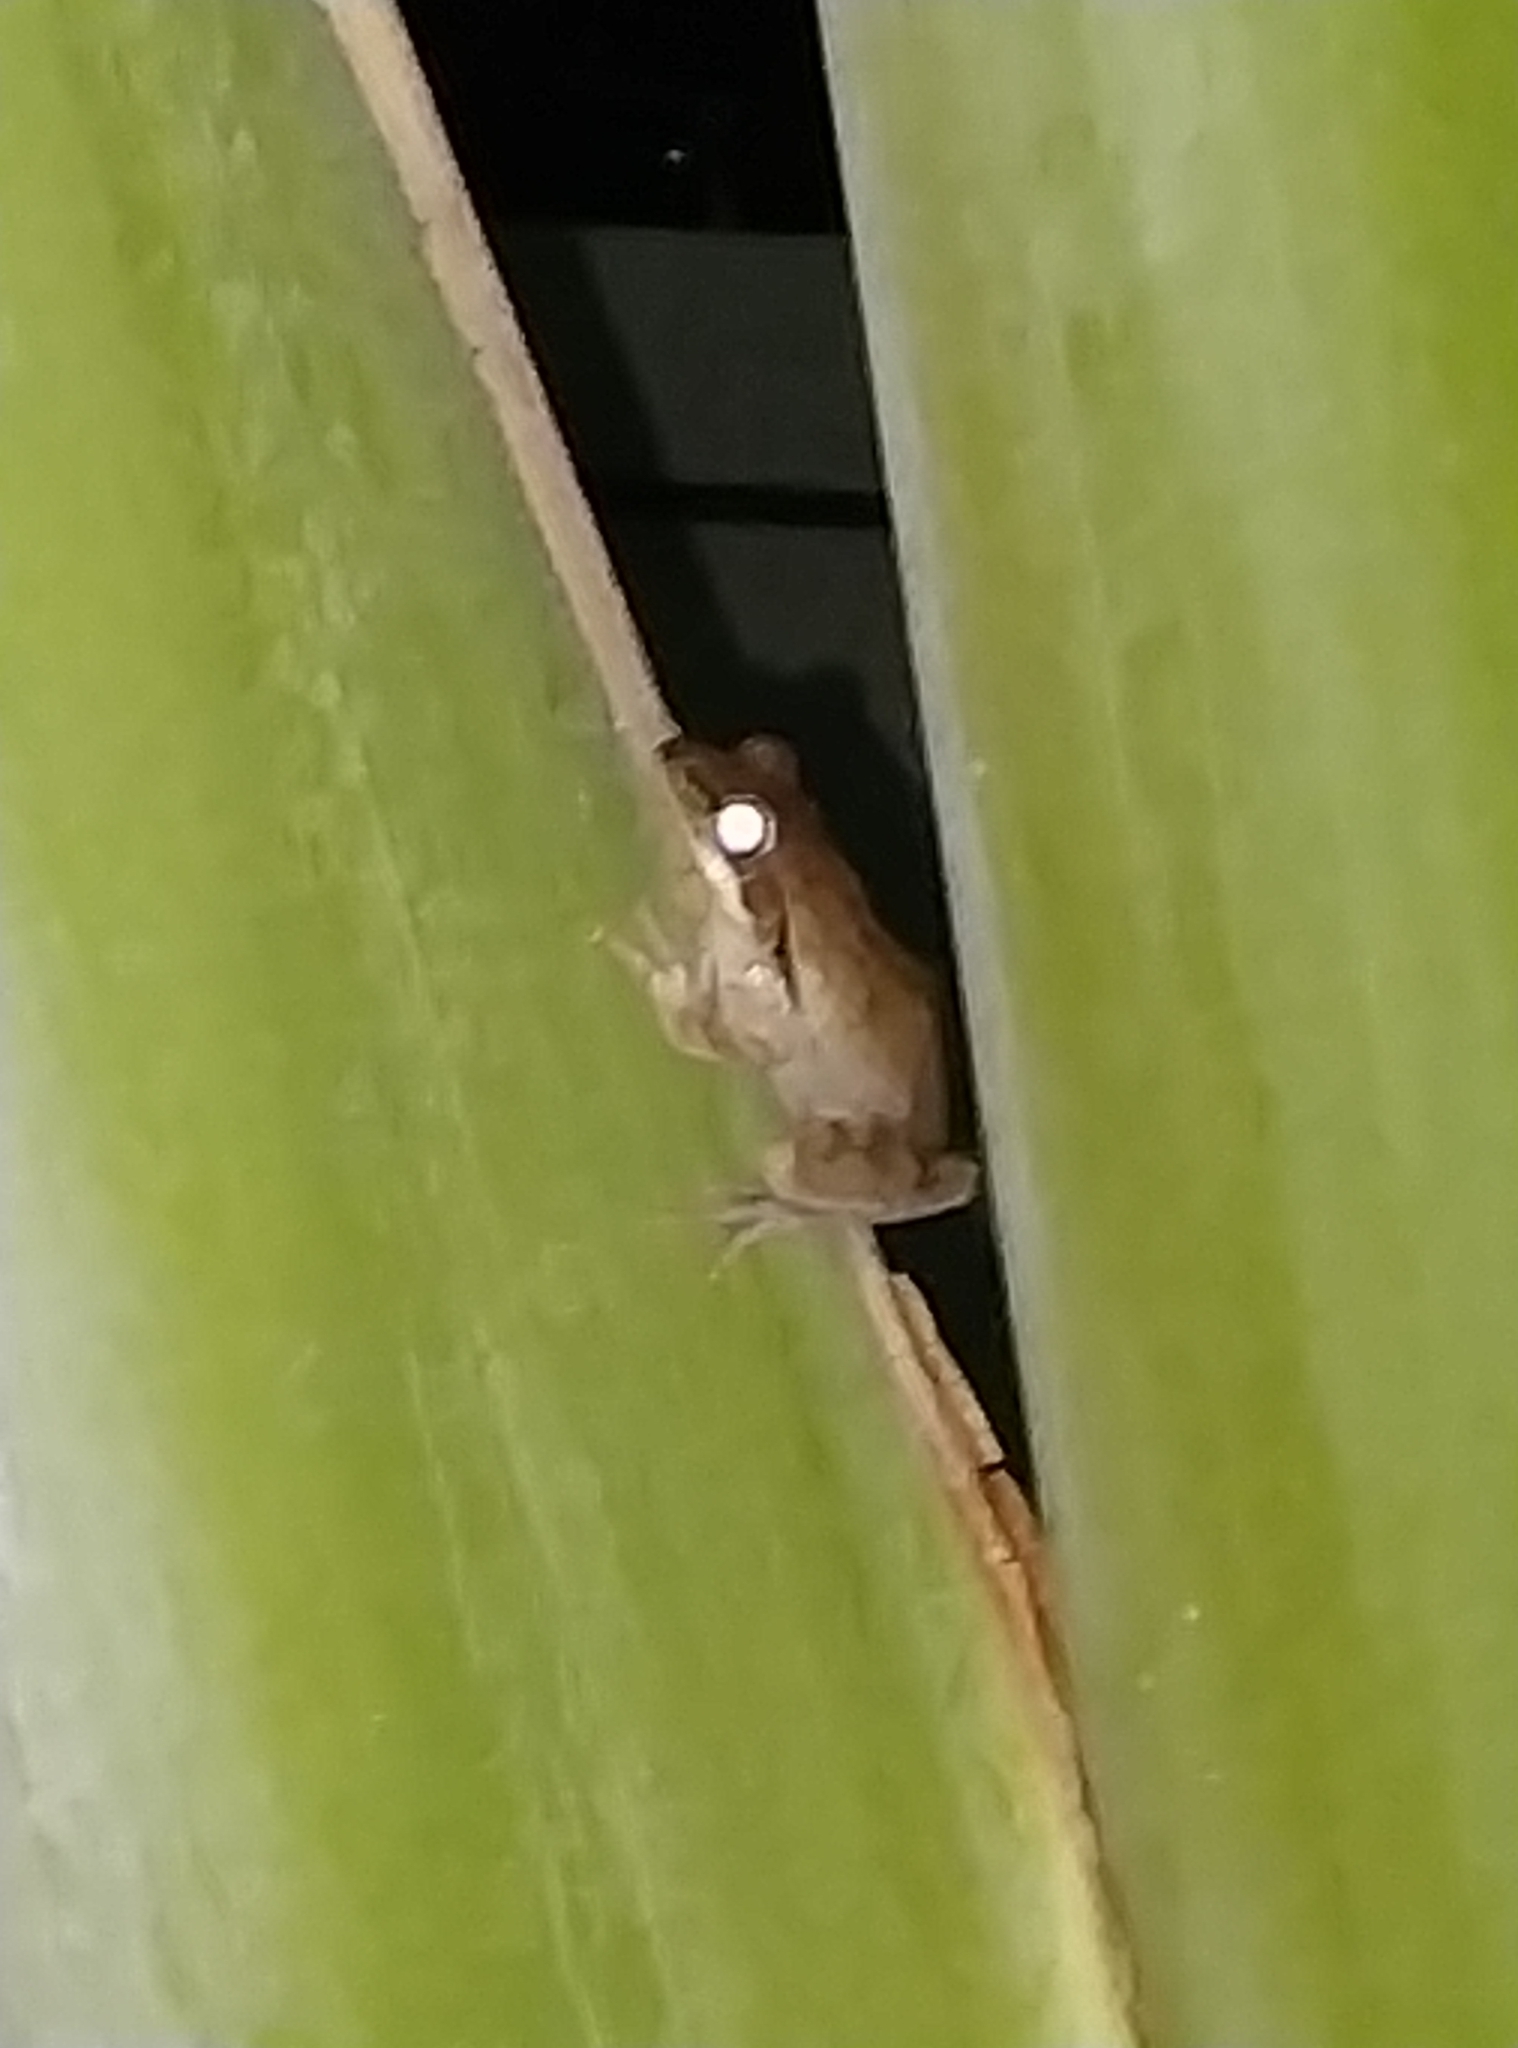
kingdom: Animalia
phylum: Chordata
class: Amphibia
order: Anura
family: Rhacophoridae
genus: Polypedates
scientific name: Polypedates maculatus
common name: Himalayan tree frog
